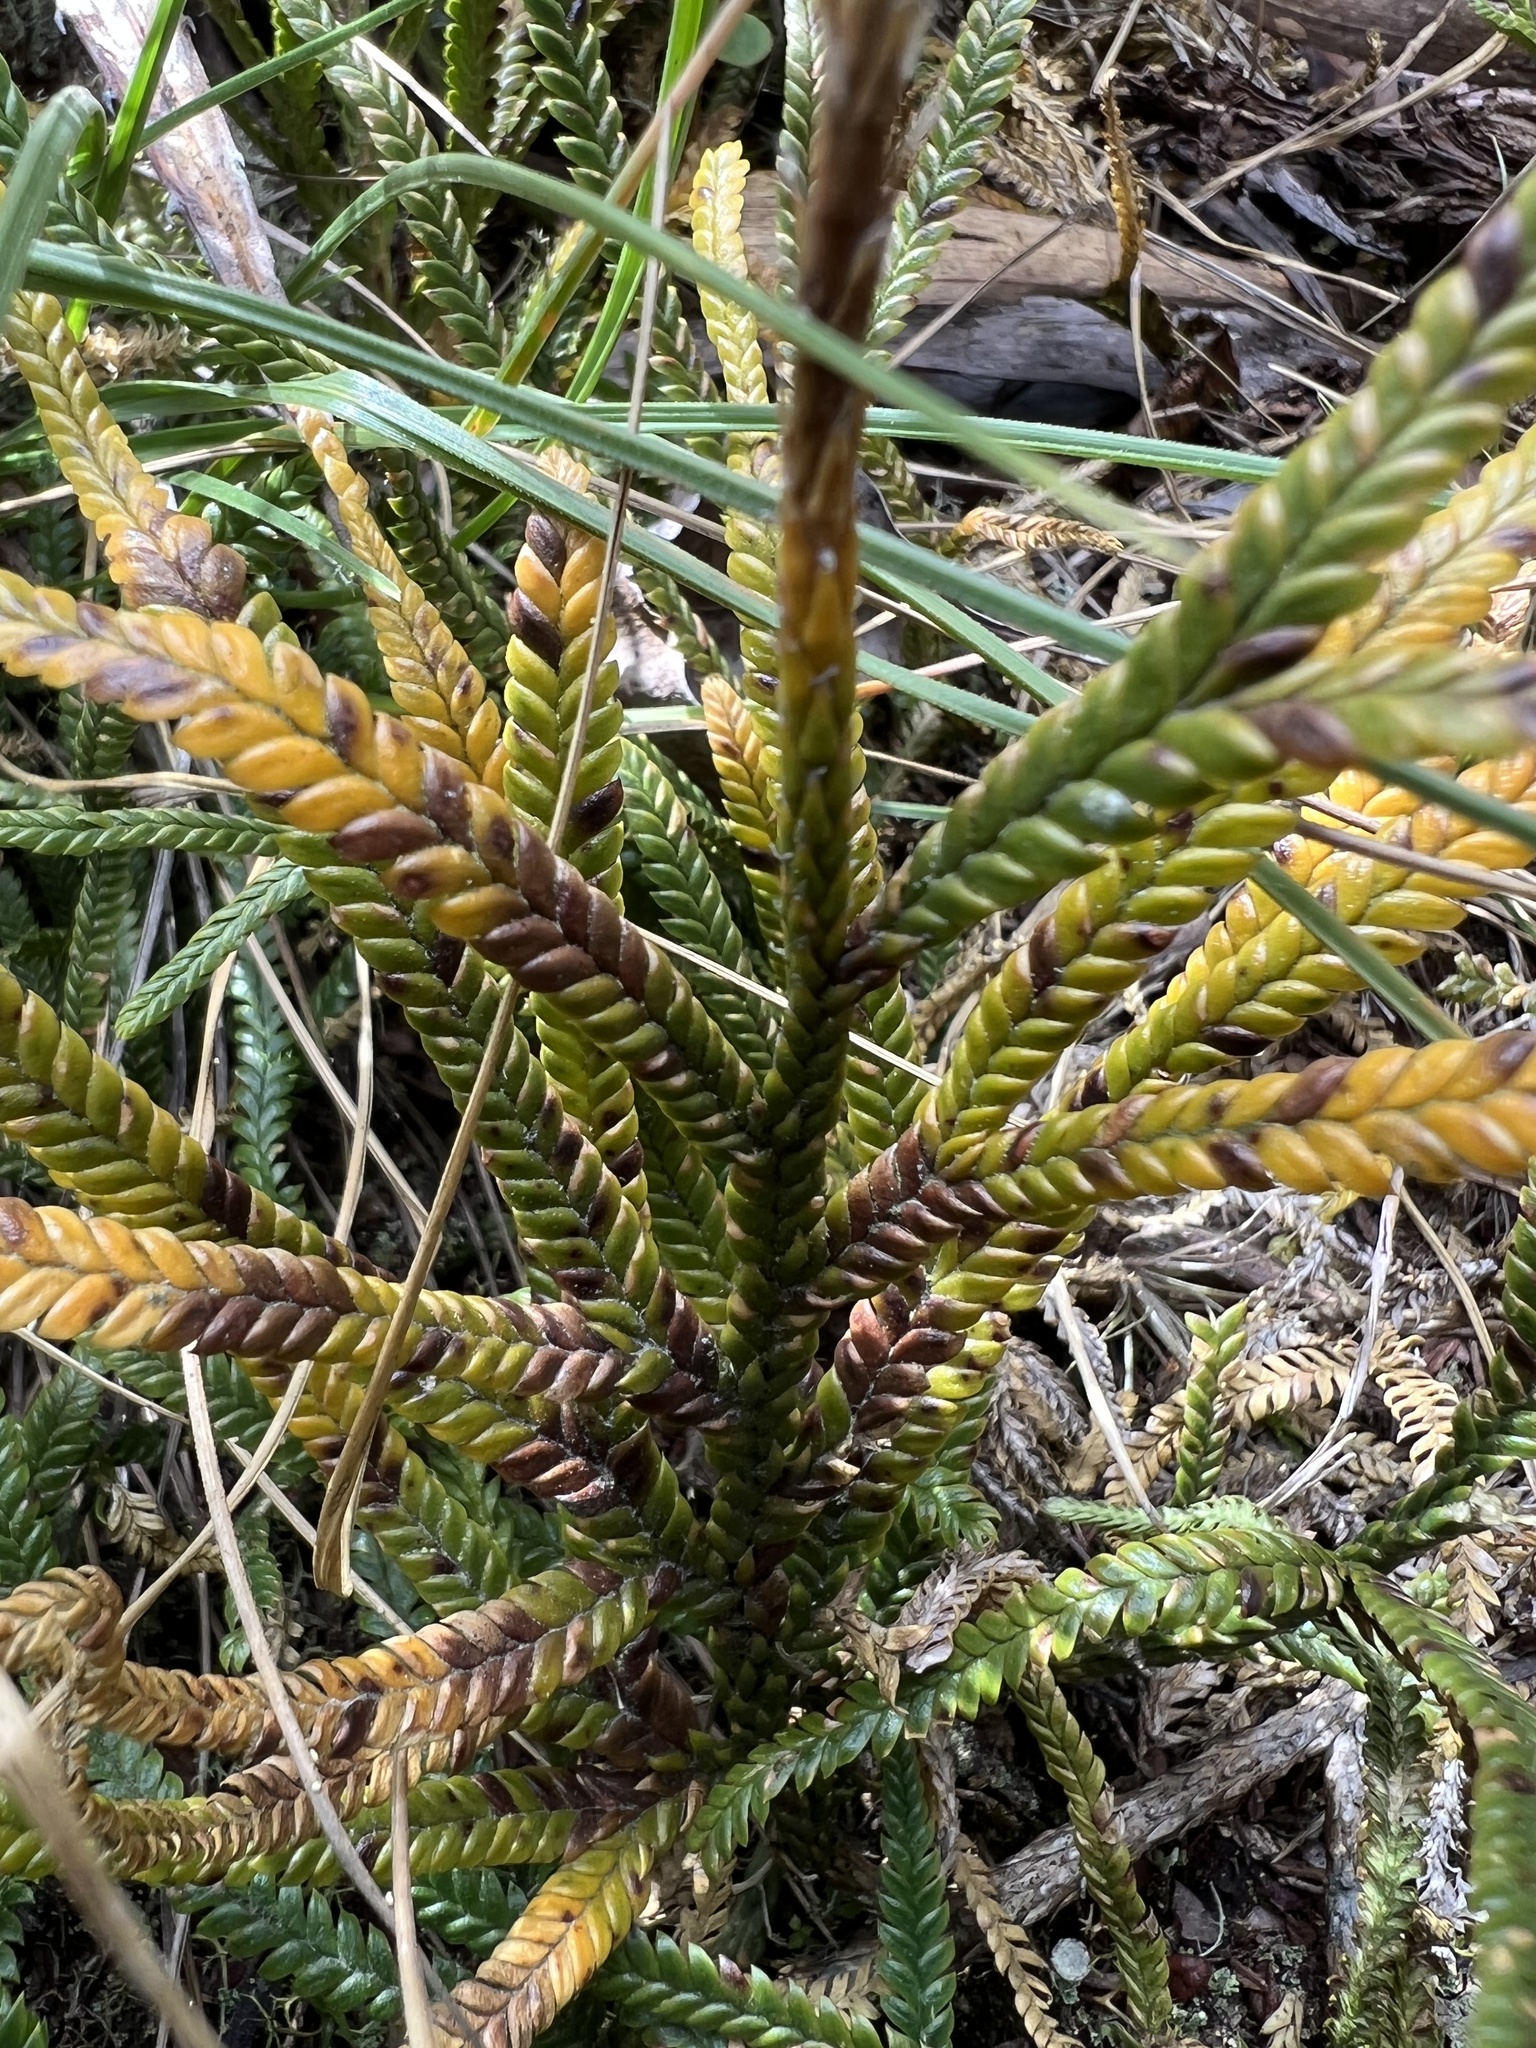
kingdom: Plantae
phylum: Tracheophyta
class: Lycopodiopsida
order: Lycopodiales
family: Lycopodiaceae
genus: Diphasium
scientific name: Diphasium jussiaei
